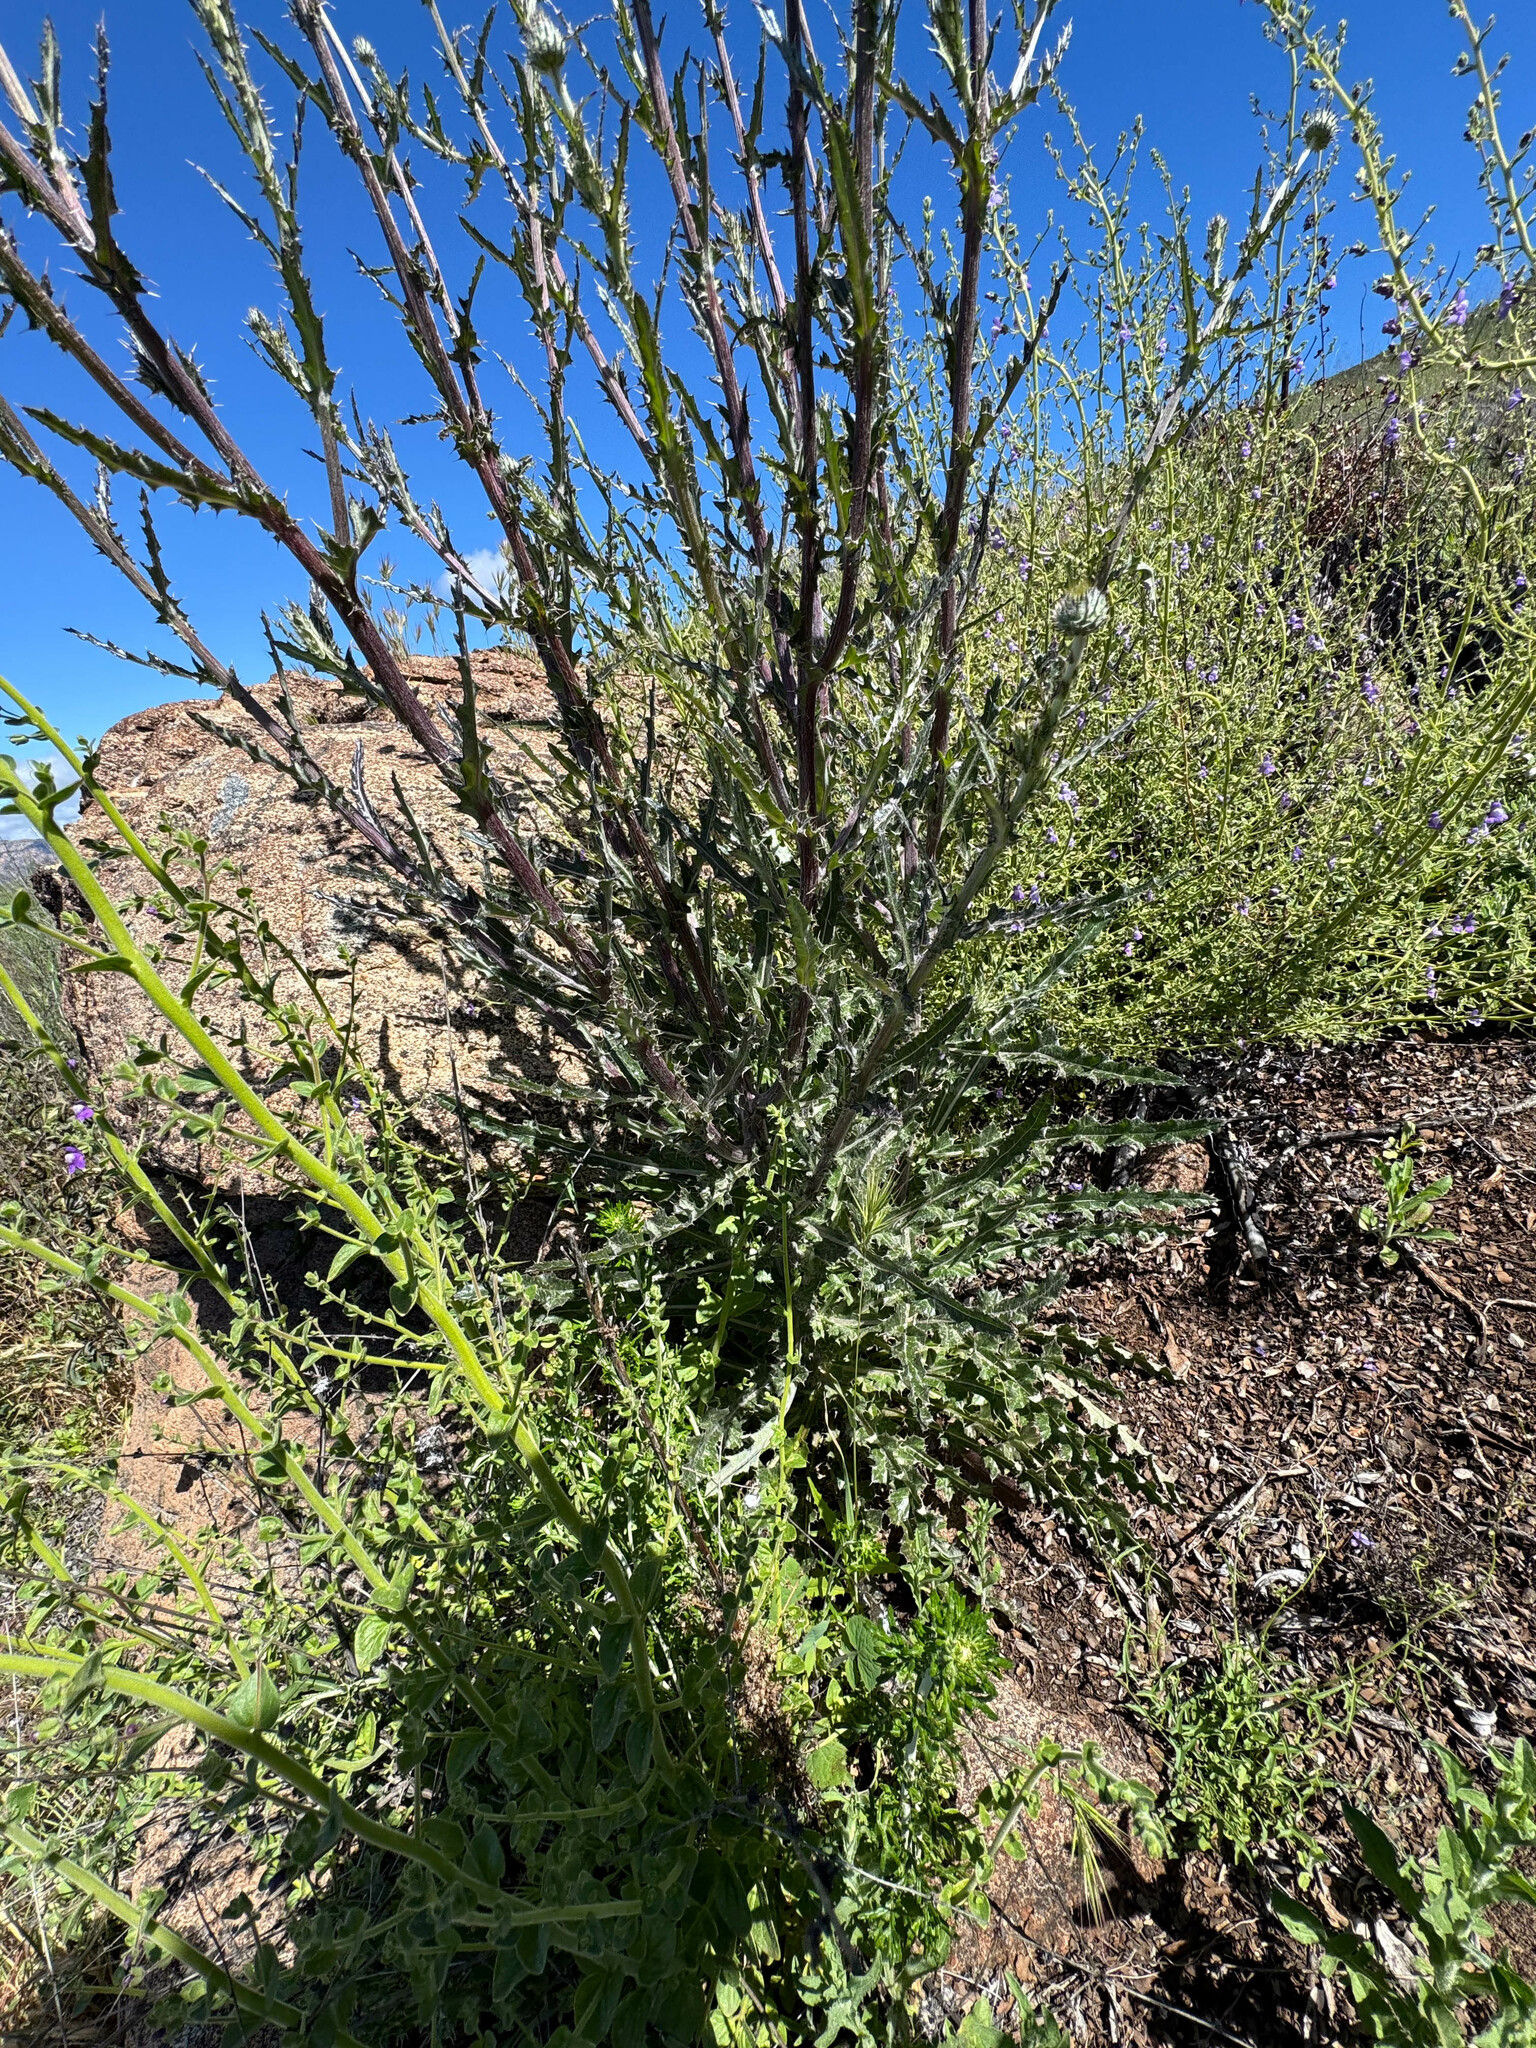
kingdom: Plantae
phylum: Tracheophyta
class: Magnoliopsida
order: Asterales
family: Asteraceae
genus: Cirsium
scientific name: Cirsium occidentale
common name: Western thistle
